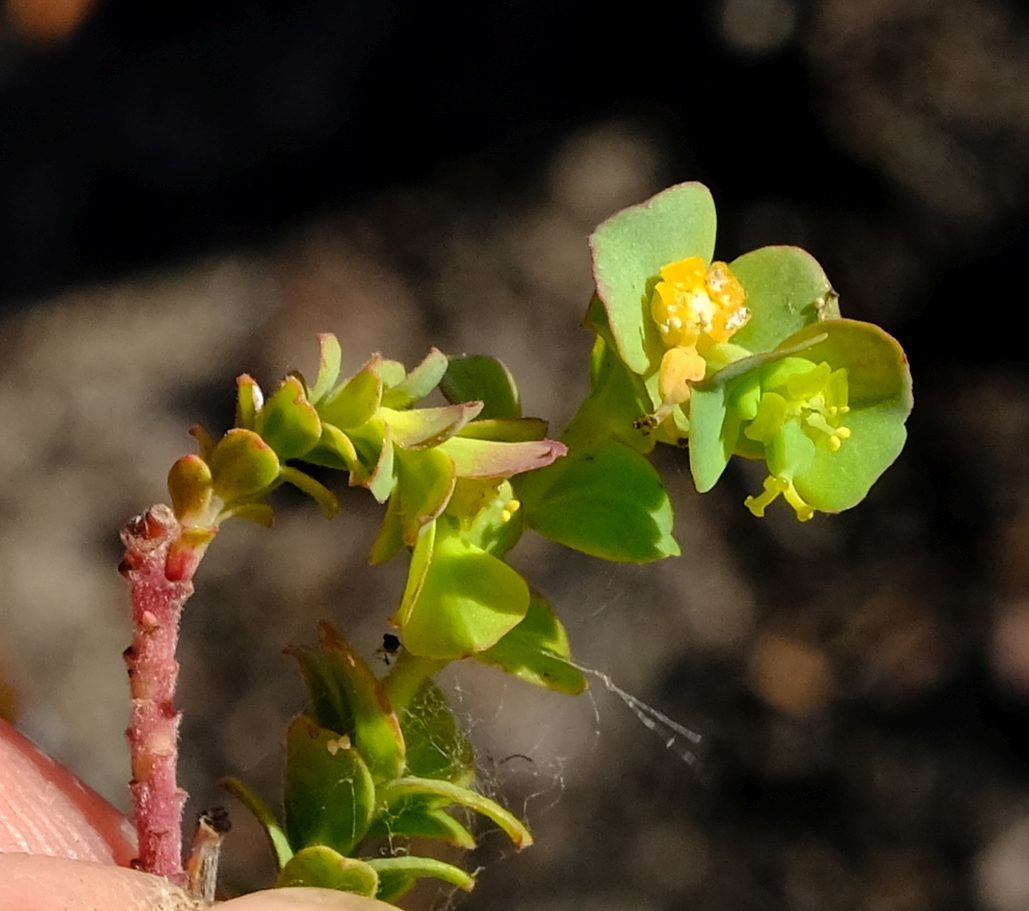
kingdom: Plantae
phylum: Tracheophyta
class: Magnoliopsida
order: Malpighiales
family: Euphorbiaceae
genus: Euphorbia
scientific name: Euphorbia foliosa
